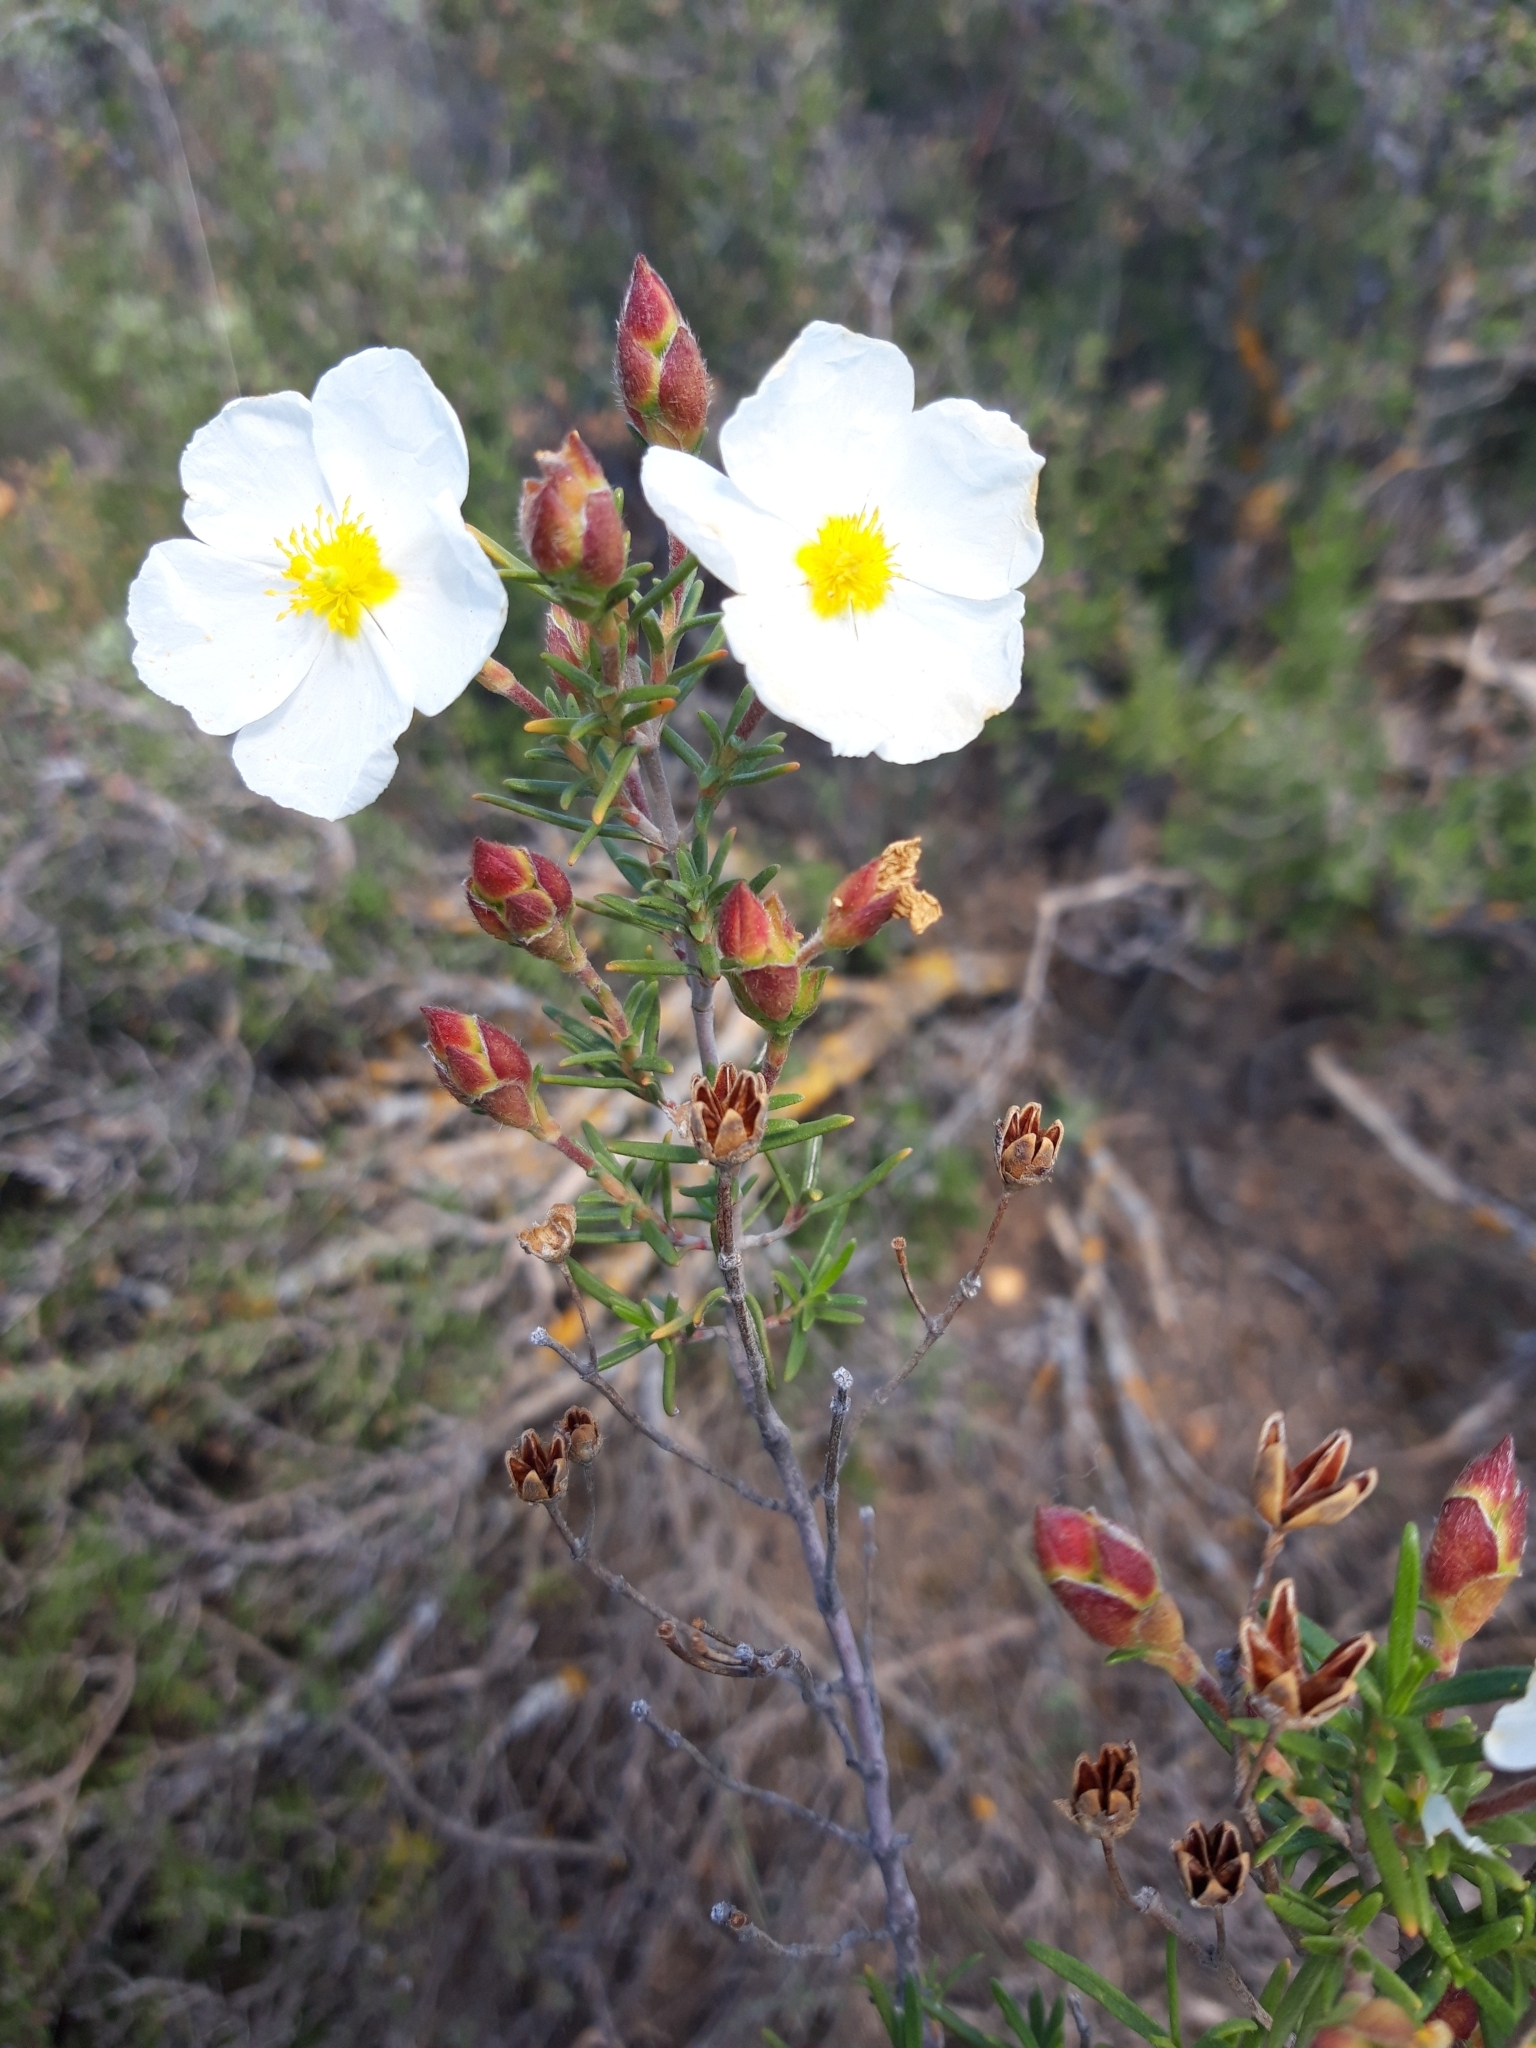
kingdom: Plantae
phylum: Tracheophyta
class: Magnoliopsida
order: Malvales
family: Cistaceae
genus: Cistus
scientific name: Cistus clusii
